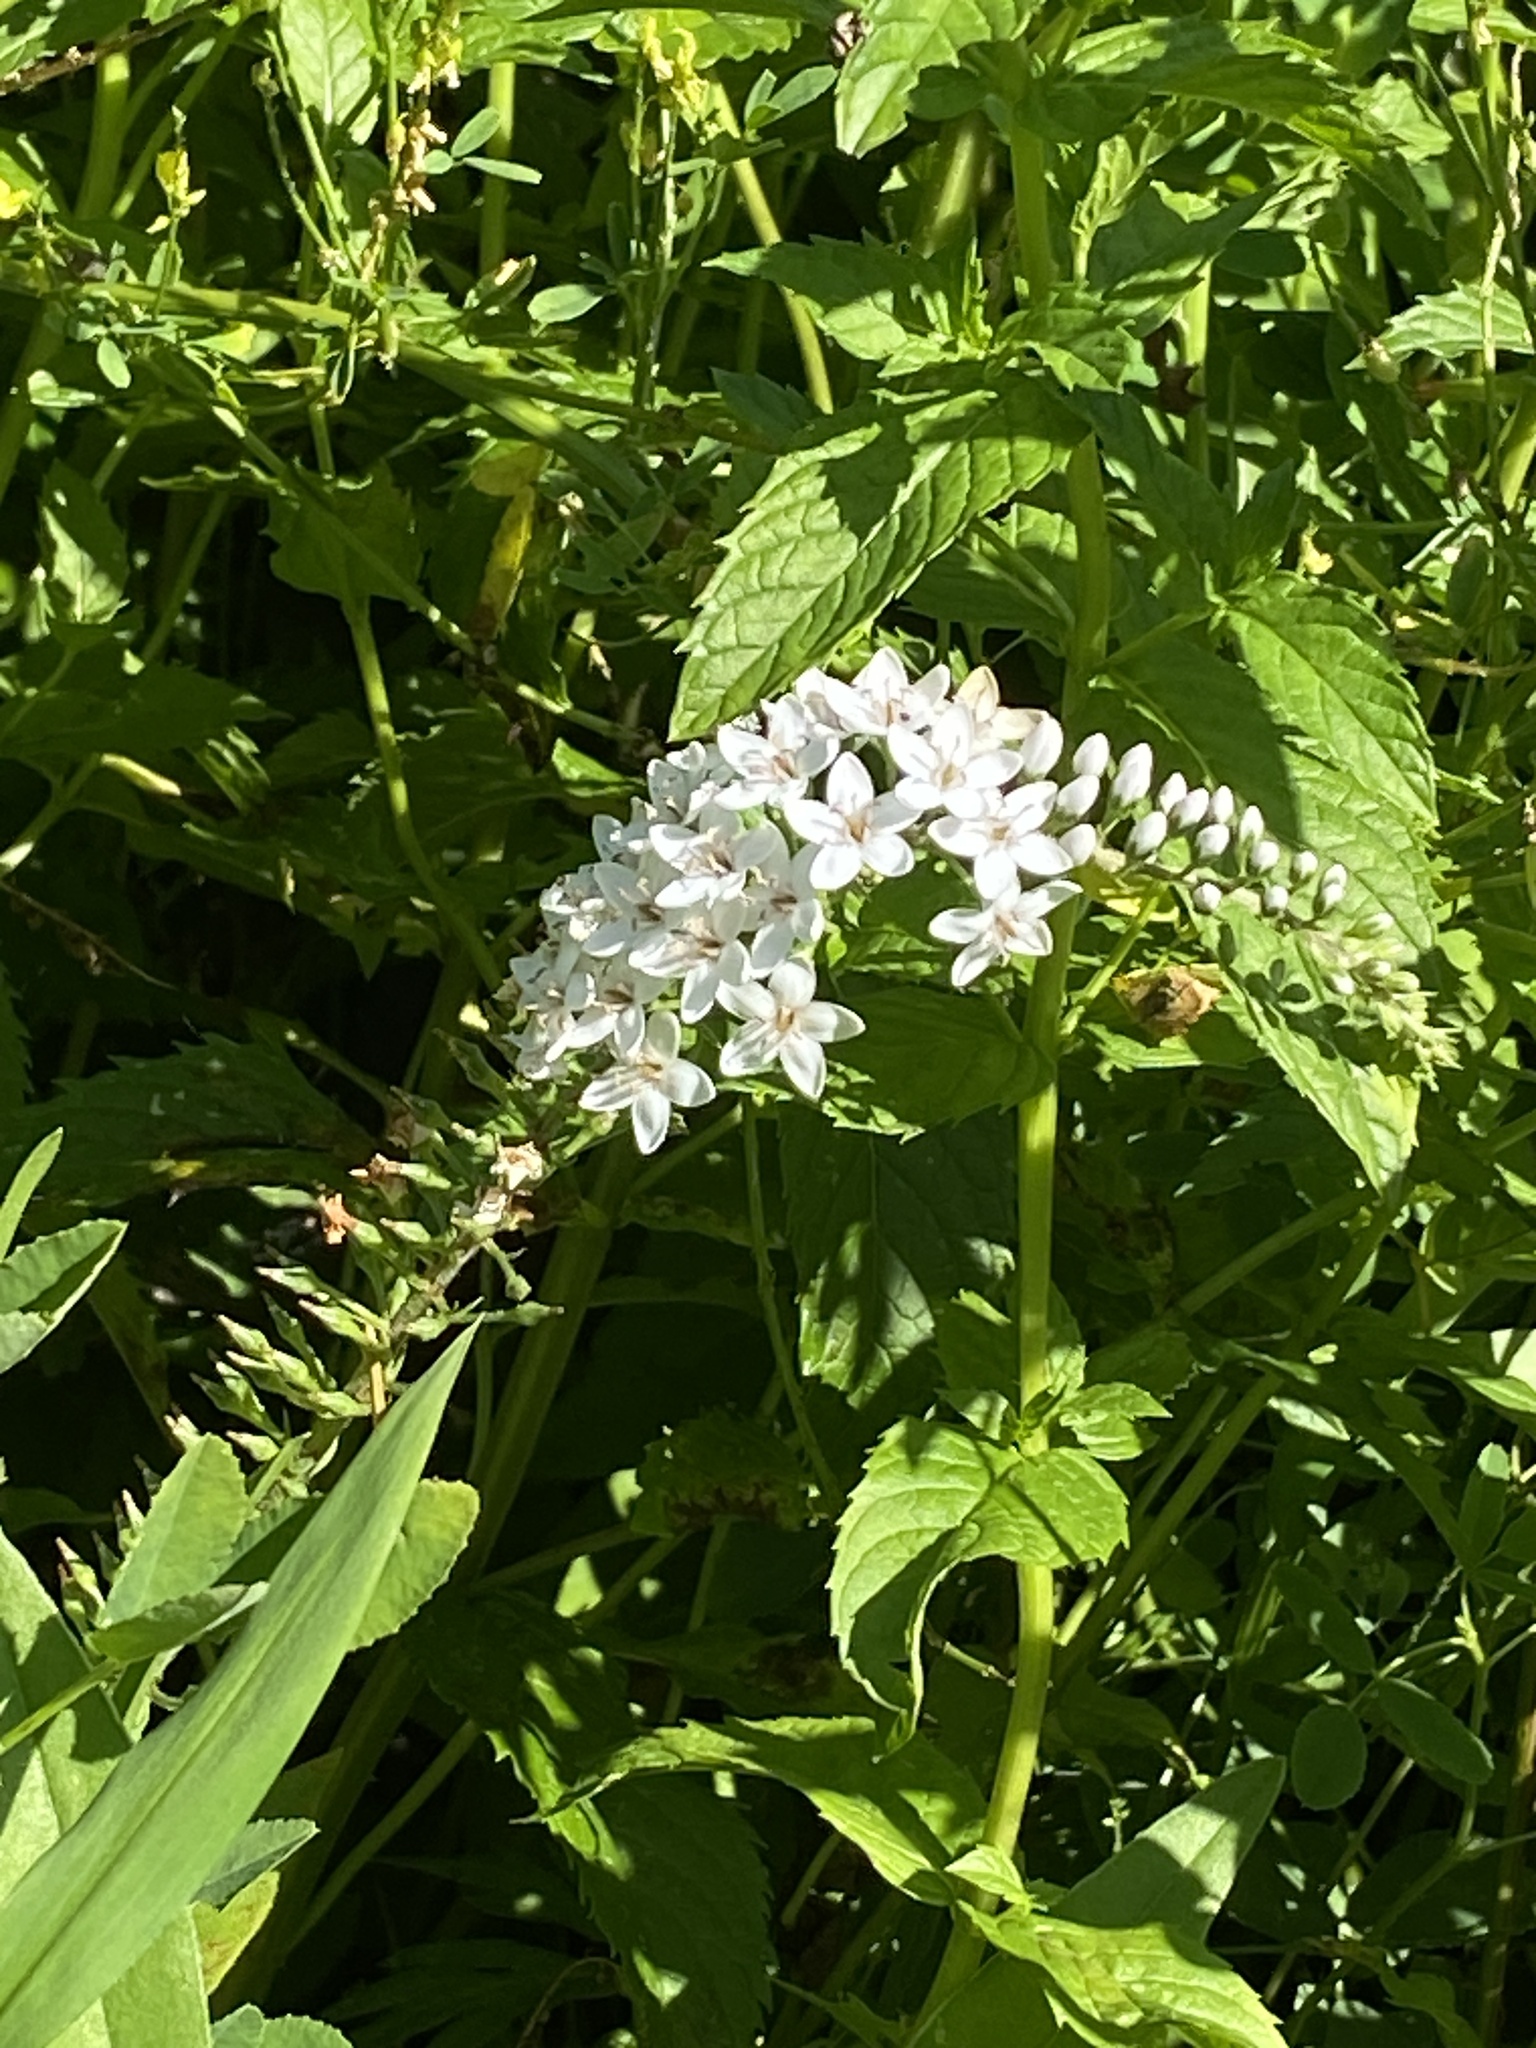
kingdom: Plantae
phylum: Tracheophyta
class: Magnoliopsida
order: Ericales
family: Primulaceae
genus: Lysimachia
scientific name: Lysimachia clethroides
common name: Gooseneck loosestrife
